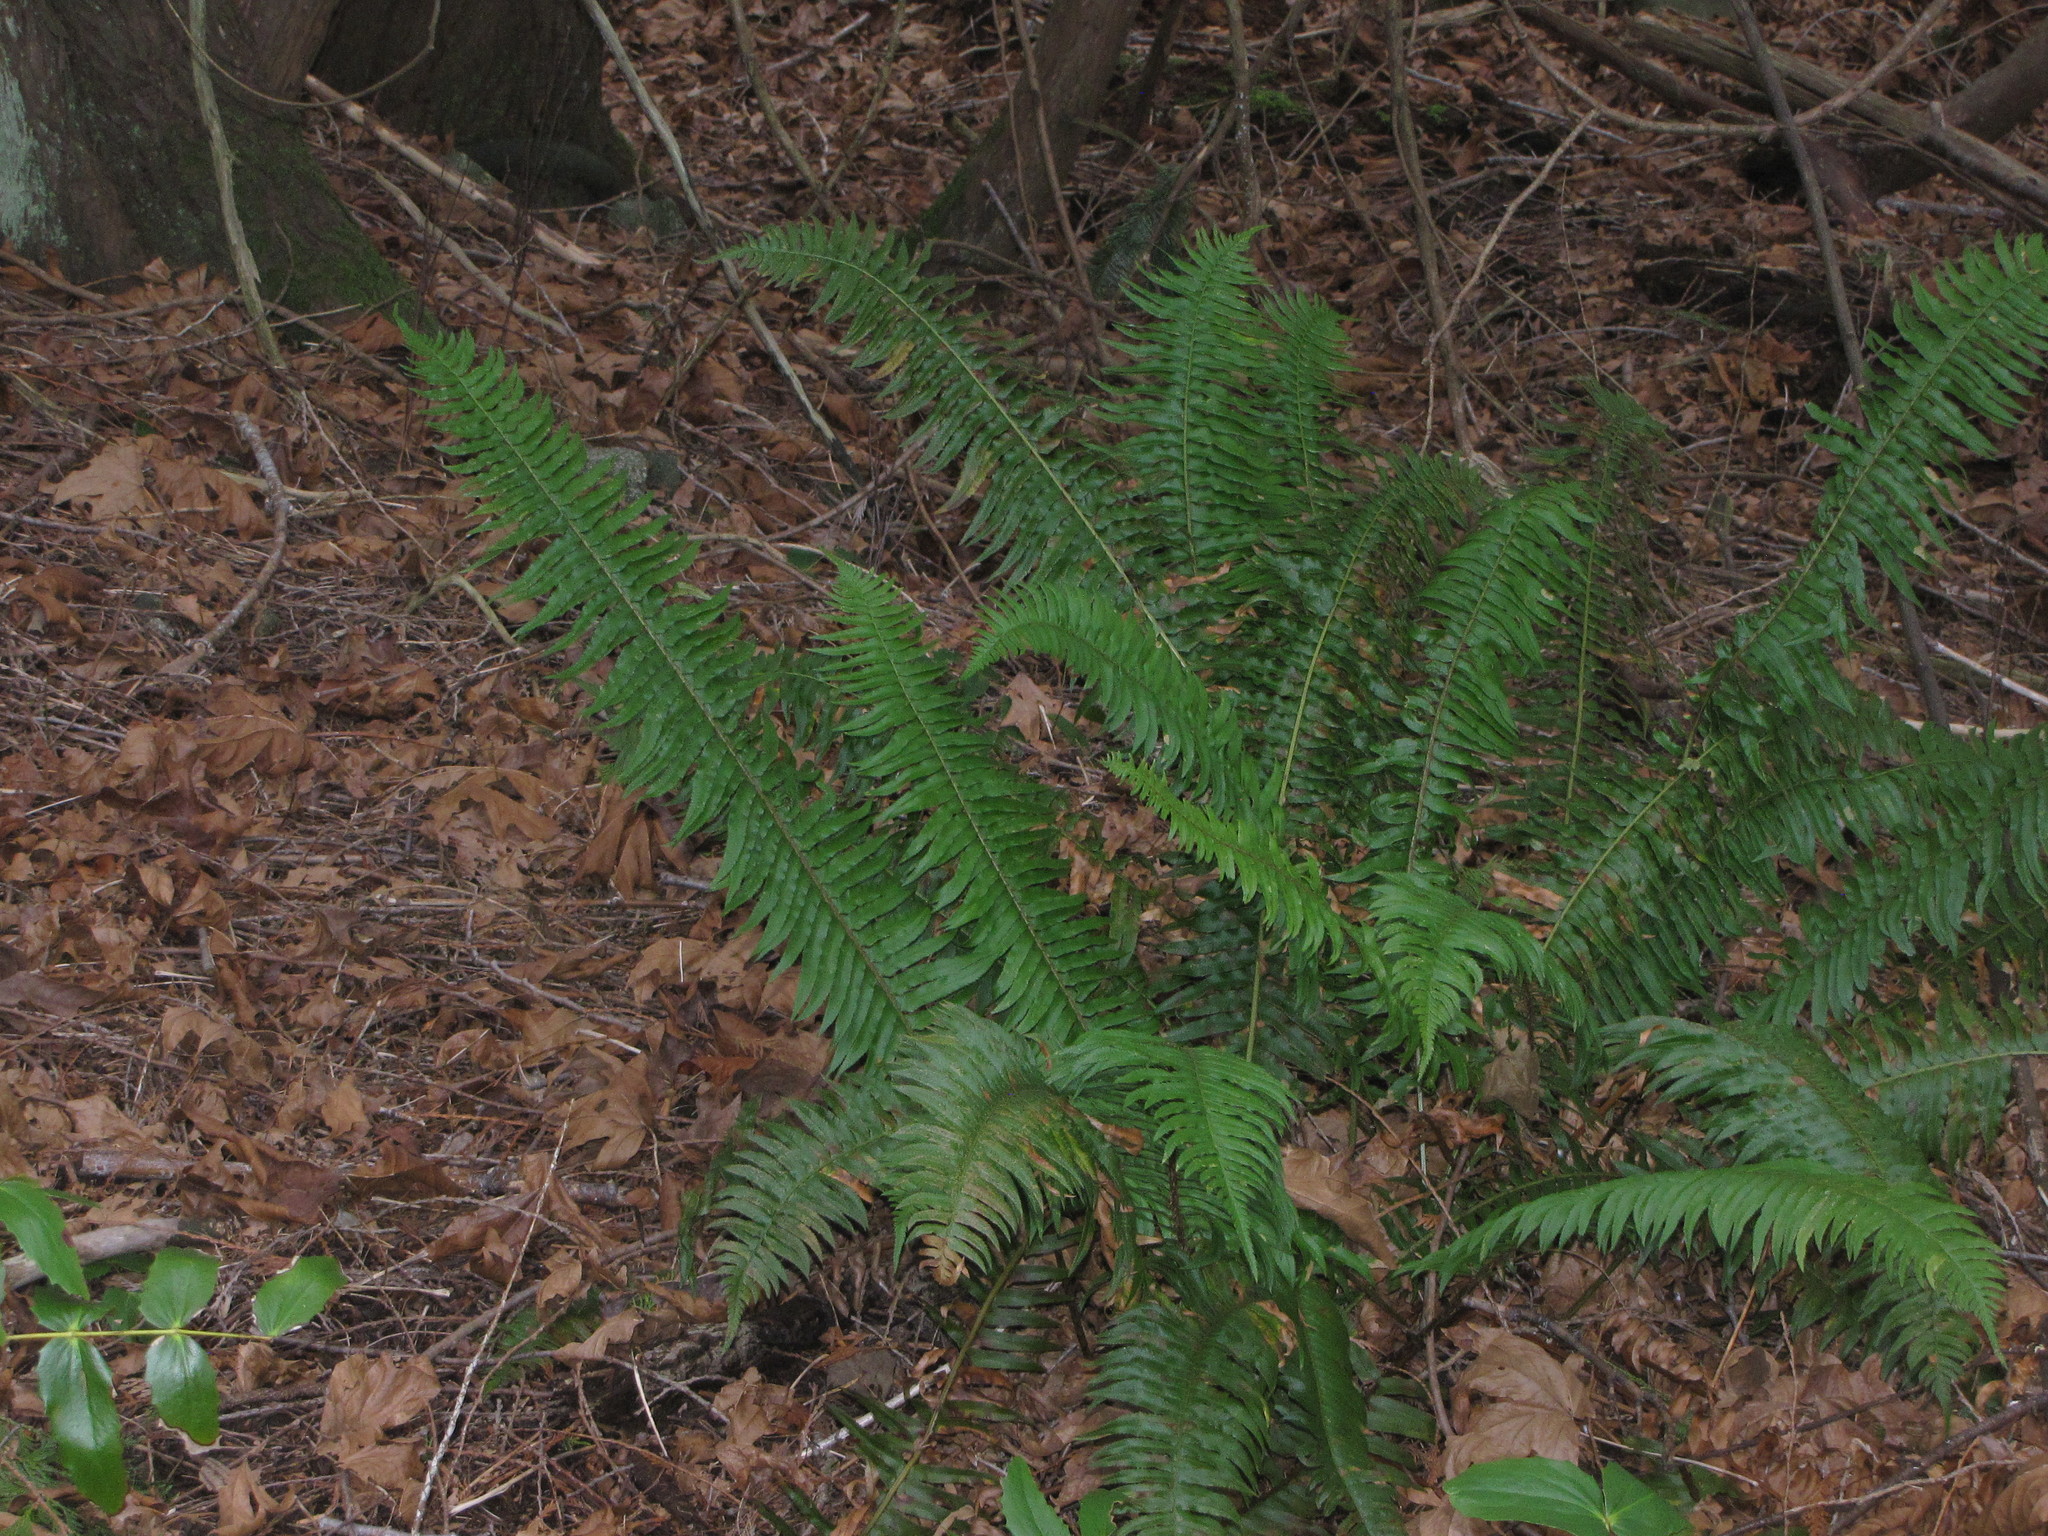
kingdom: Plantae
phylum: Tracheophyta
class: Polypodiopsida
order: Polypodiales
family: Dryopteridaceae
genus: Polystichum
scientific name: Polystichum munitum
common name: Western sword-fern
